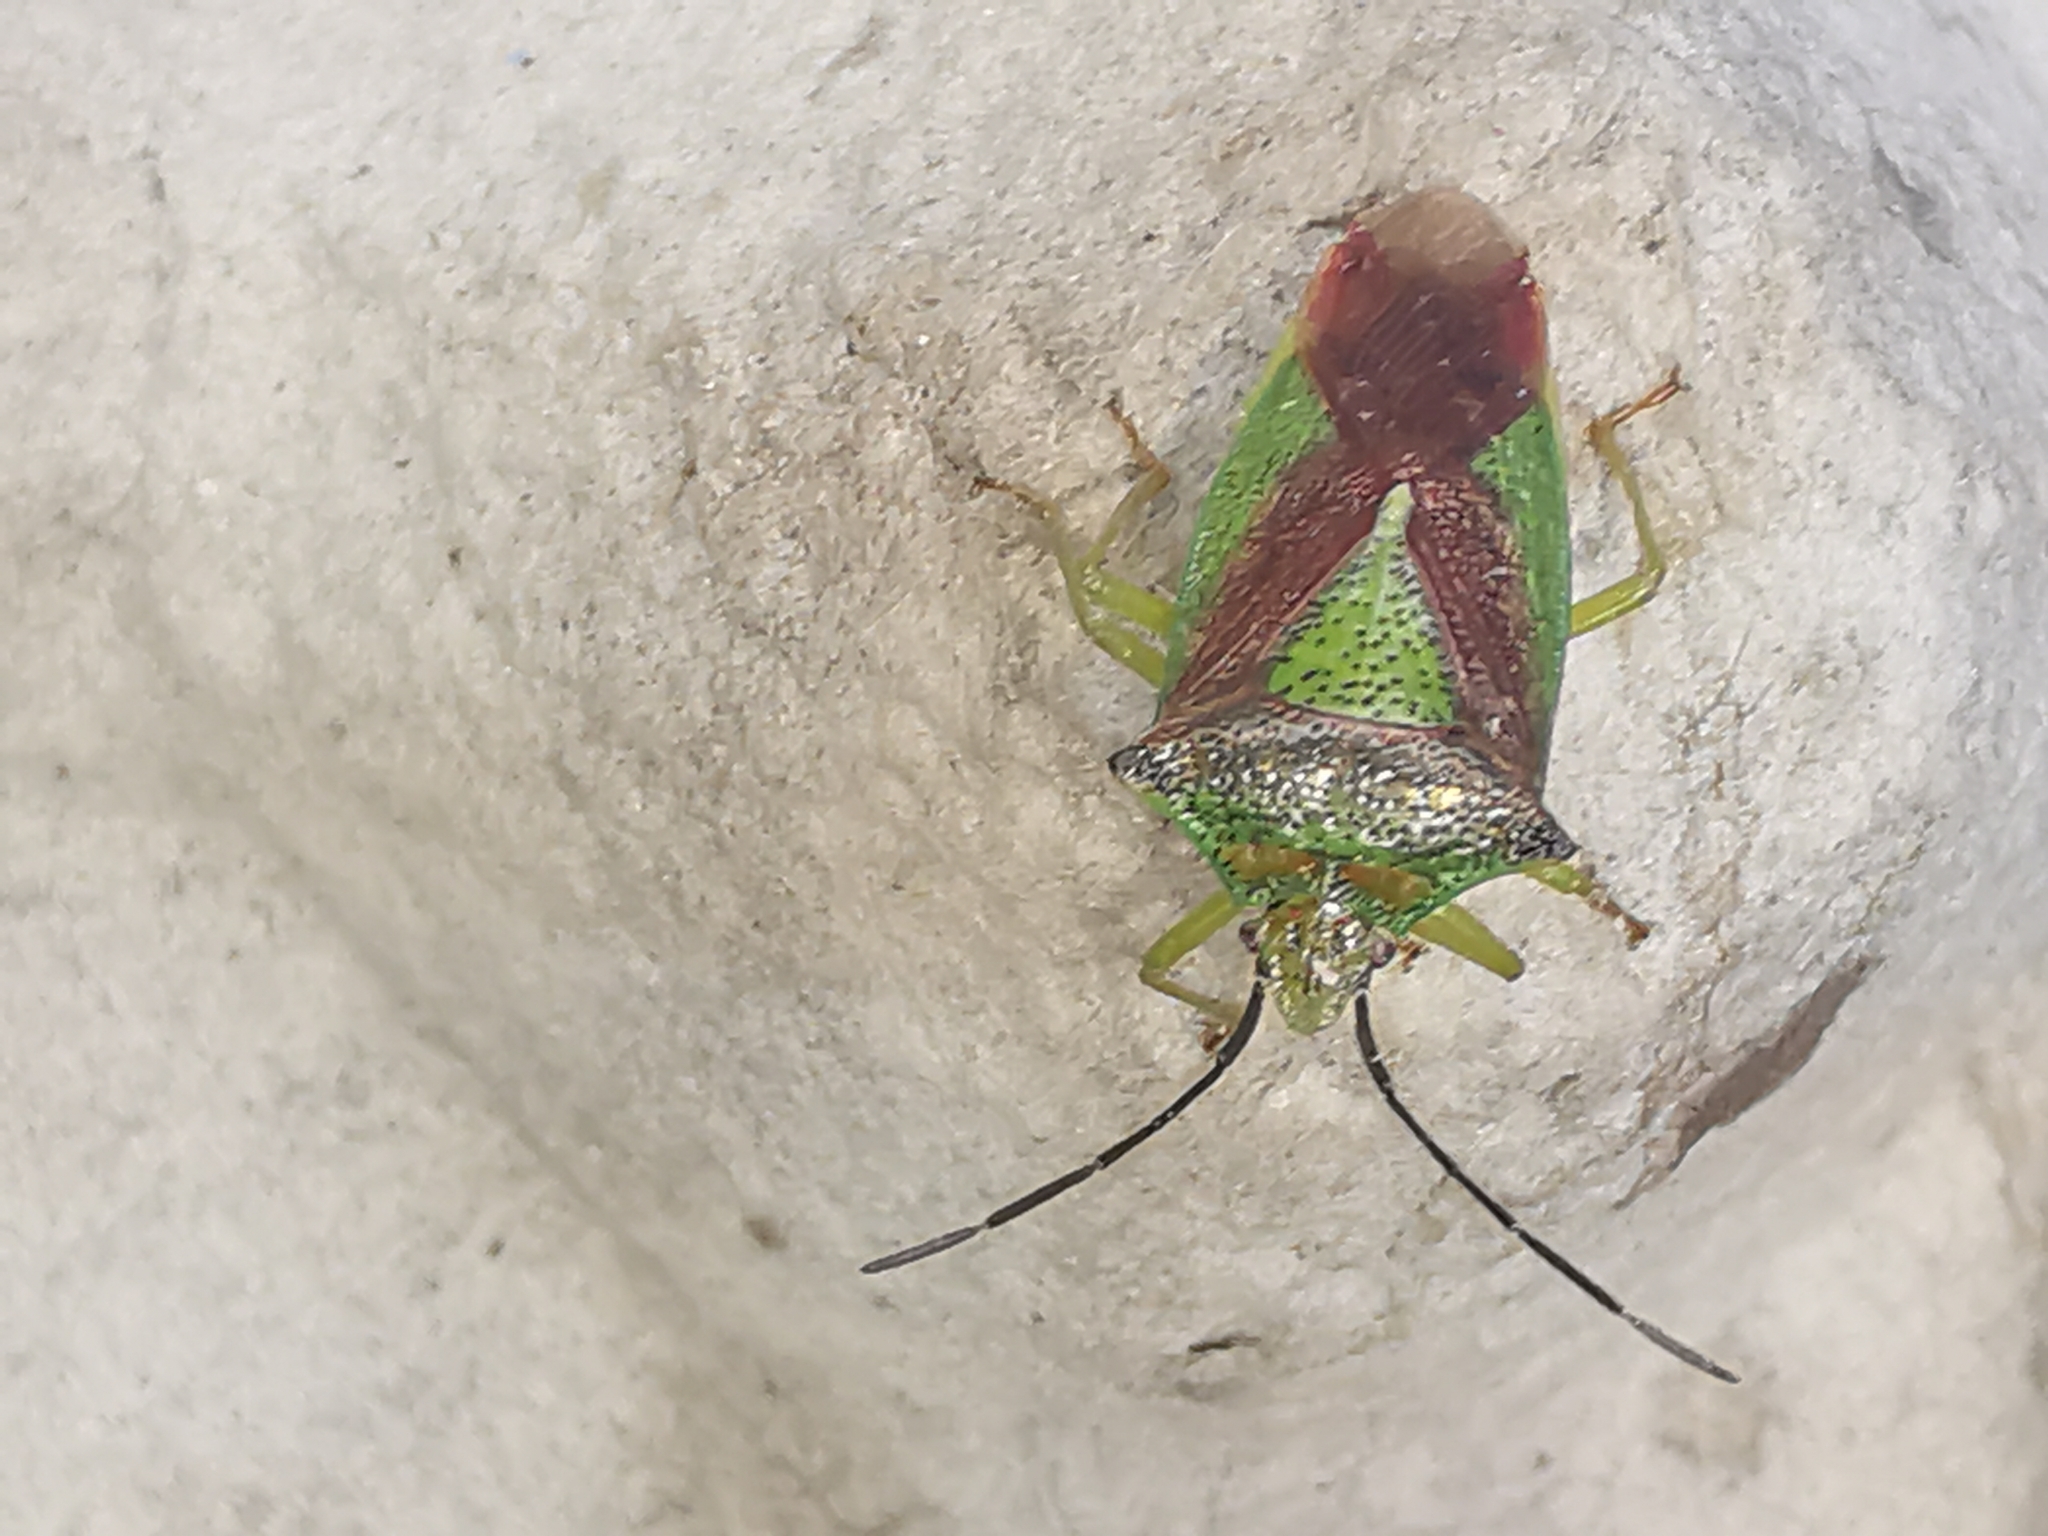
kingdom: Animalia
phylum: Arthropoda
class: Insecta
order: Hemiptera
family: Acanthosomatidae
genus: Acanthosoma
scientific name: Acanthosoma haemorrhoidale
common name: Hawthorn shieldbug
